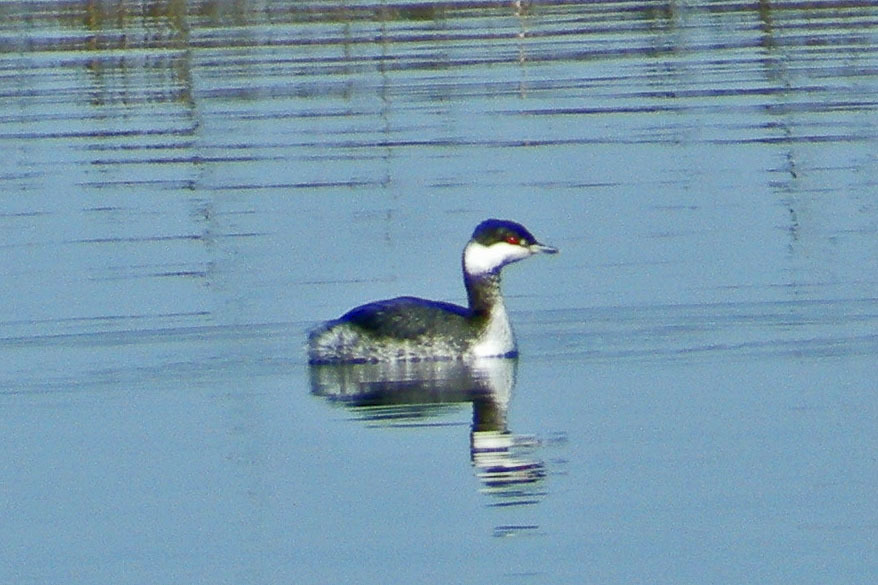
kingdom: Animalia
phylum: Chordata
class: Aves
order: Podicipediformes
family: Podicipedidae
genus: Podiceps
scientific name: Podiceps auritus
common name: Horned grebe
